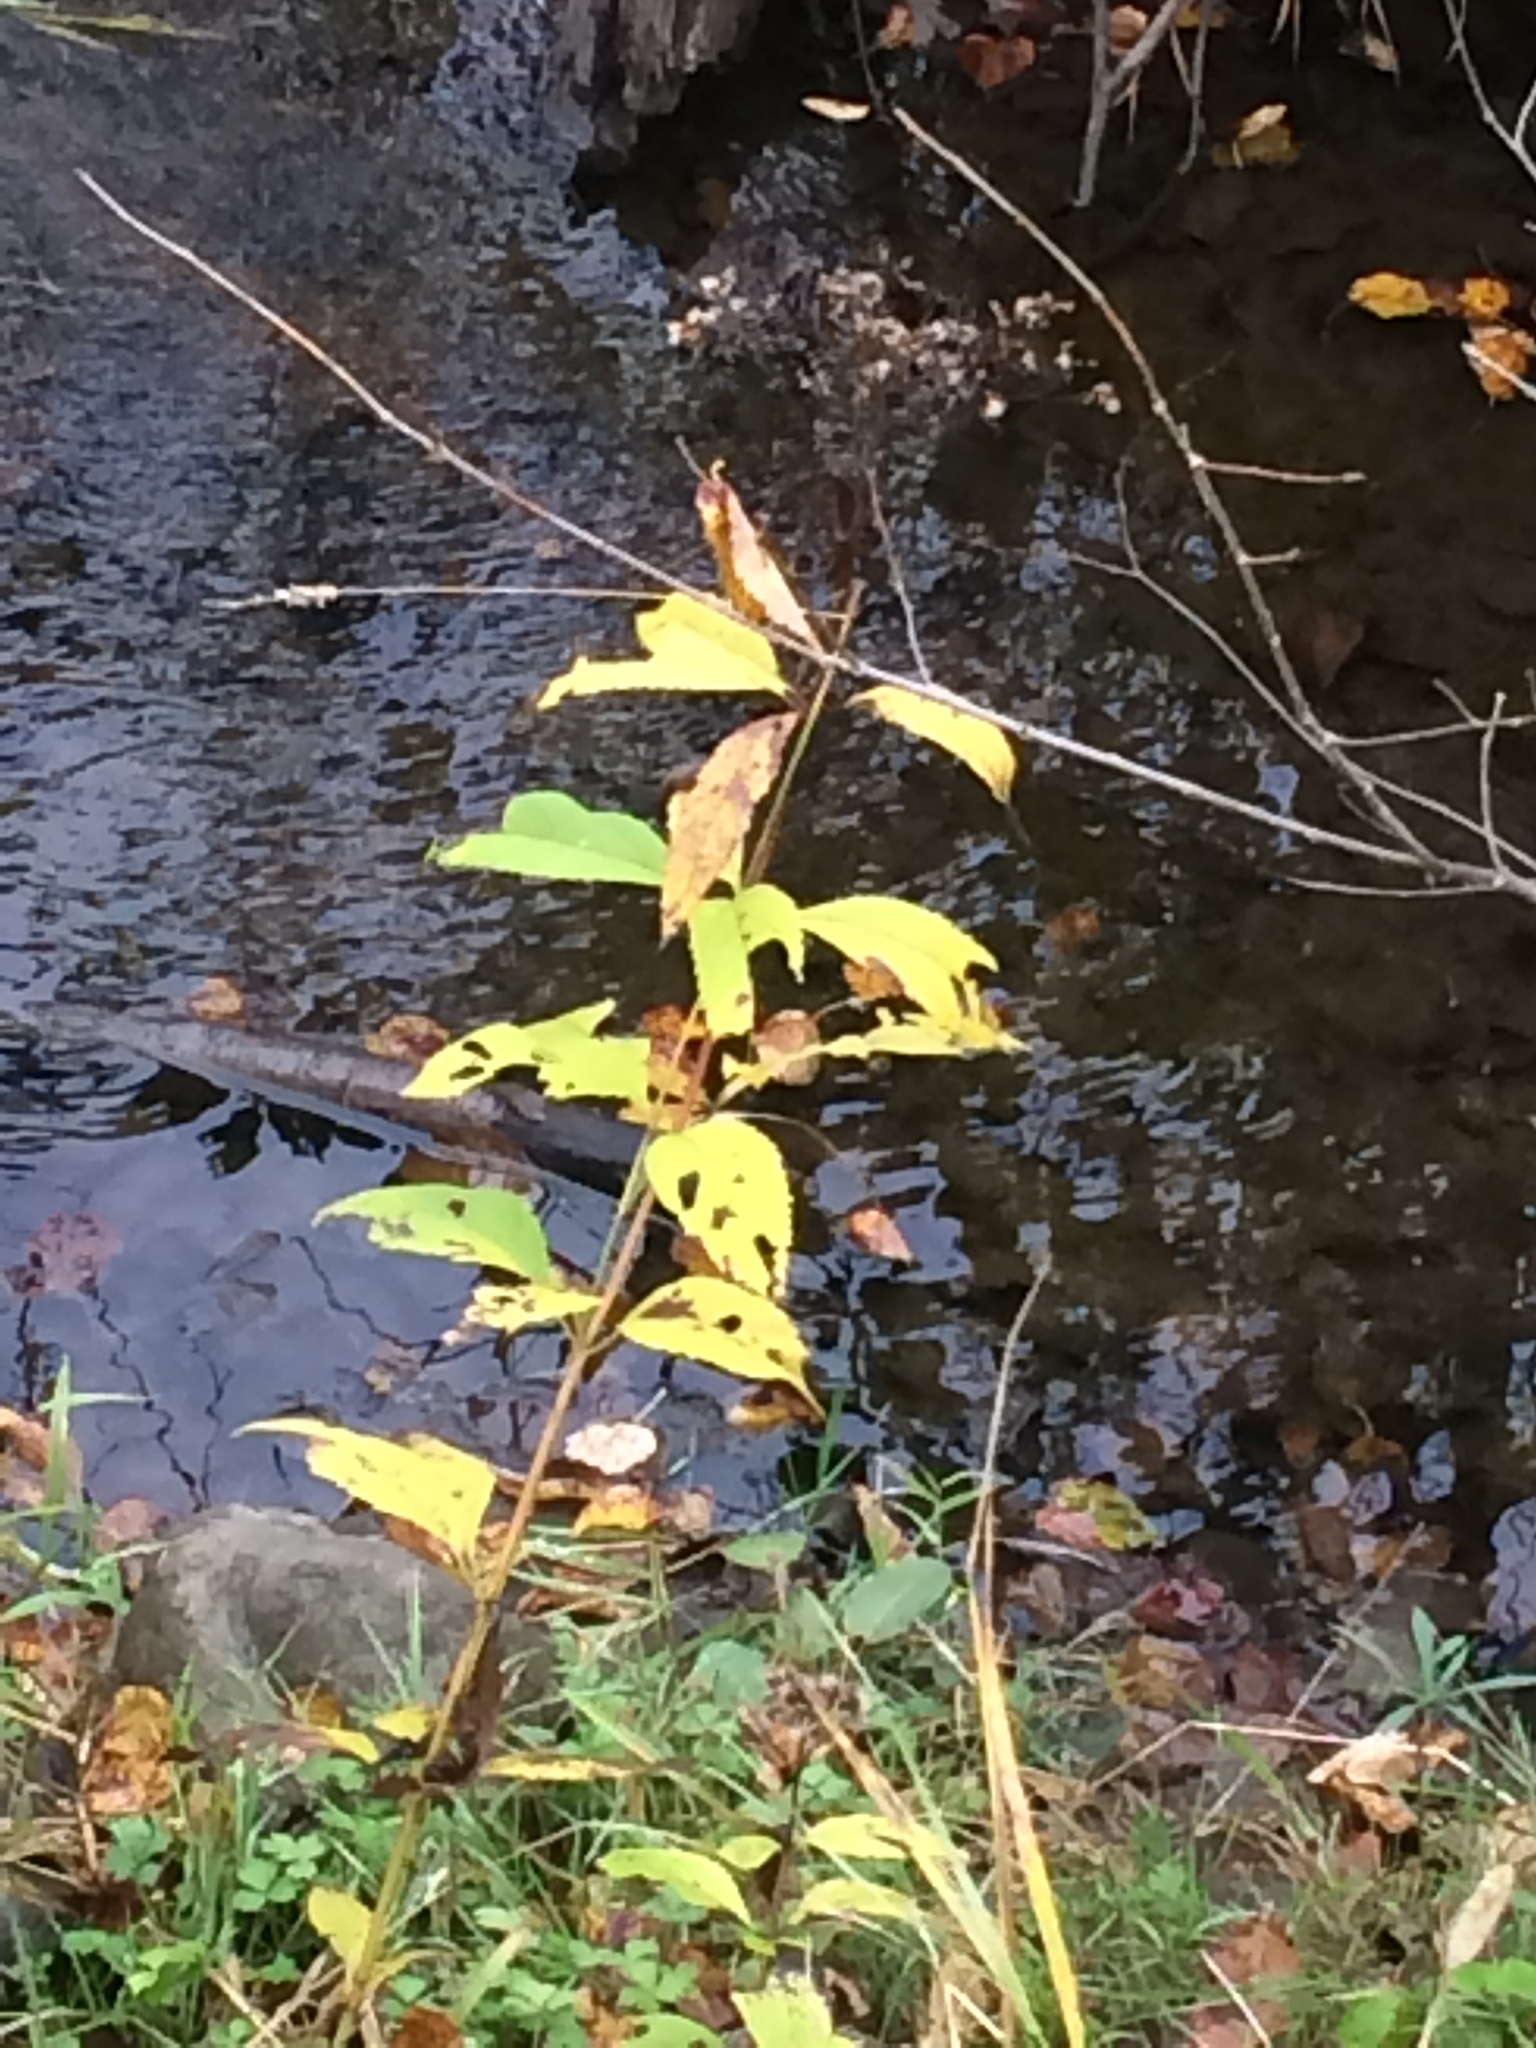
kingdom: Plantae
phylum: Tracheophyta
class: Magnoliopsida
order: Asterales
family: Asteraceae
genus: Eutrochium
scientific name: Eutrochium maculatum
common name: Spotted joe pye weed
